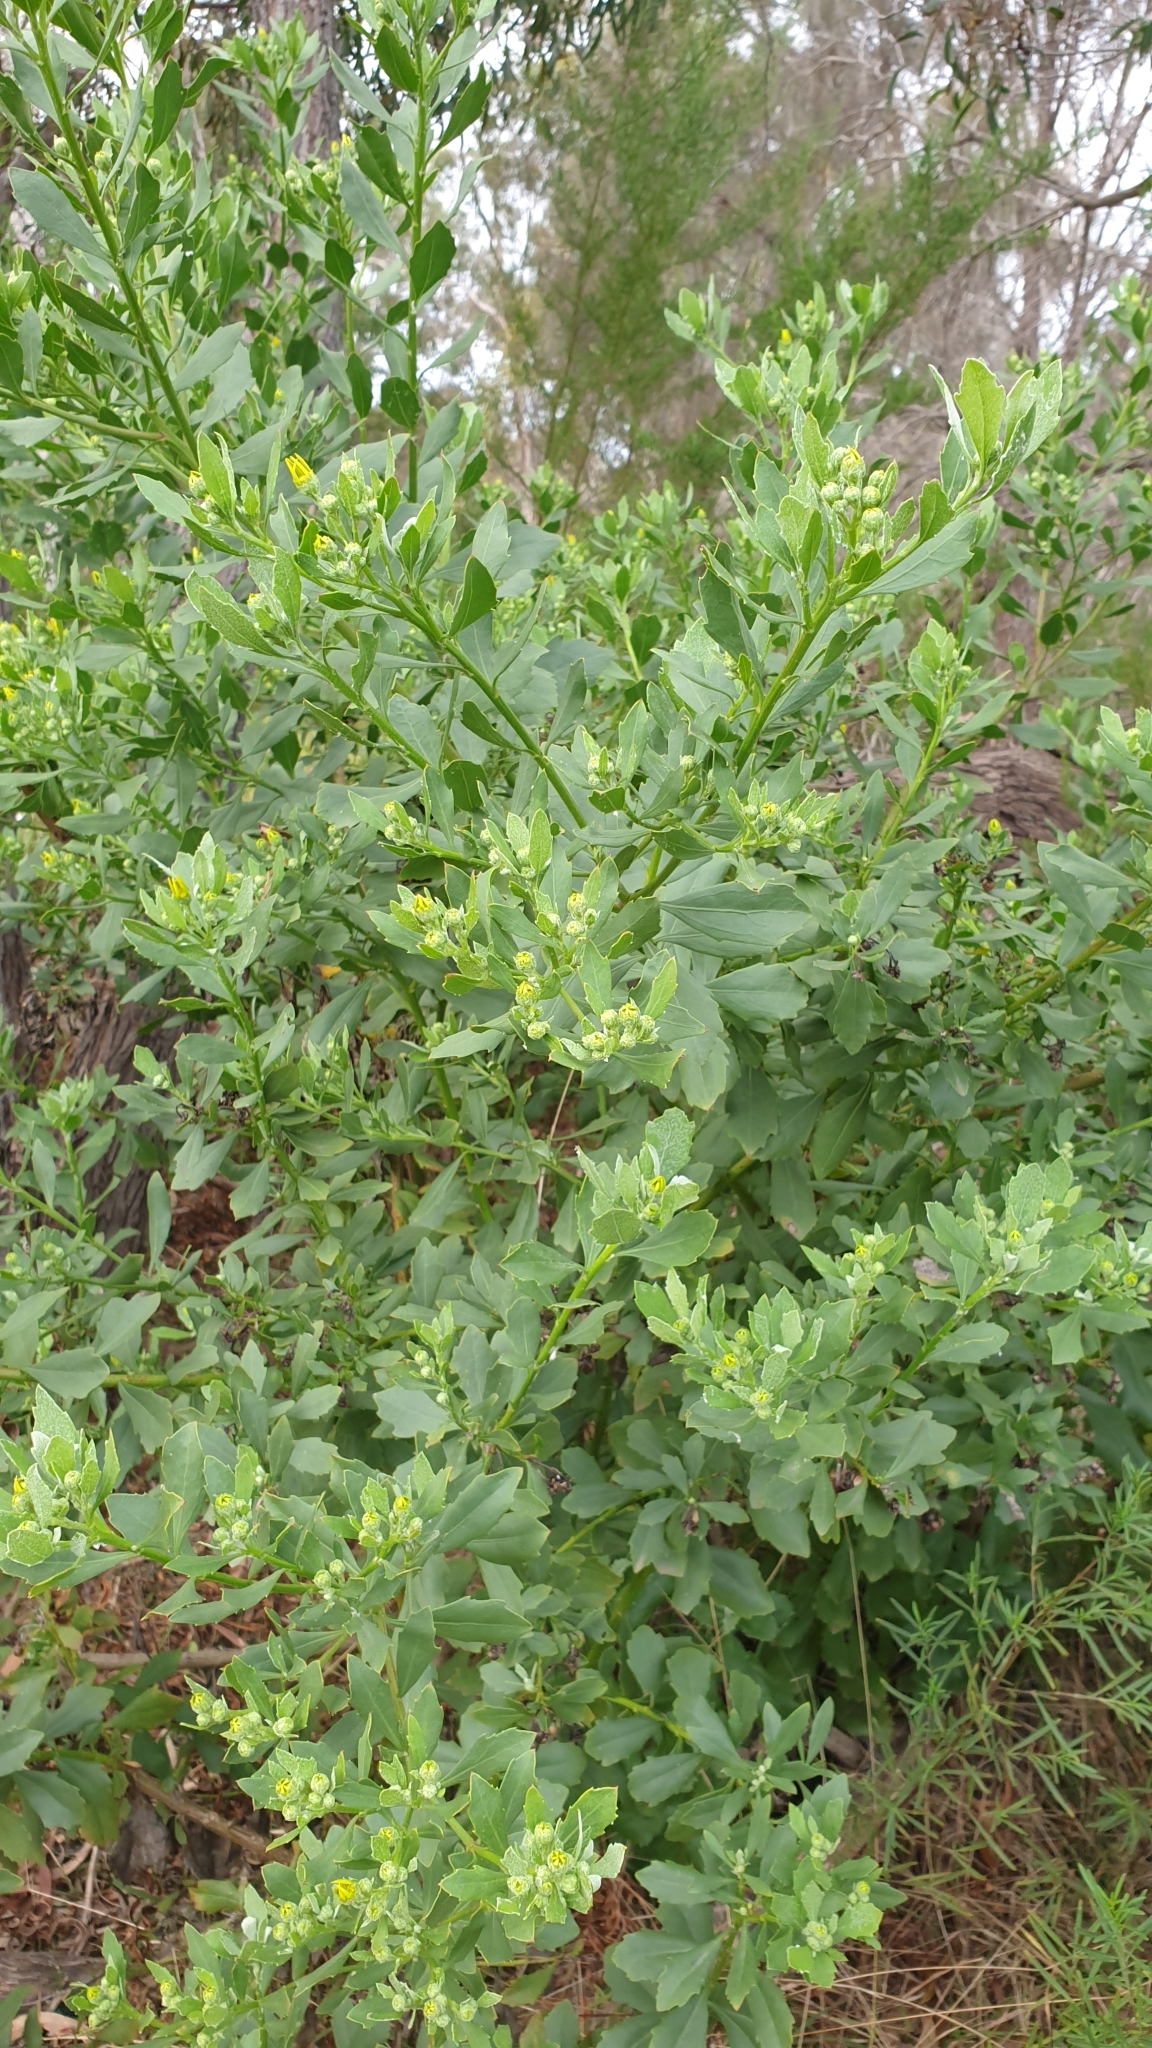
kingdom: Plantae
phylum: Tracheophyta
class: Magnoliopsida
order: Asterales
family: Asteraceae
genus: Osteospermum
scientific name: Osteospermum moniliferum
